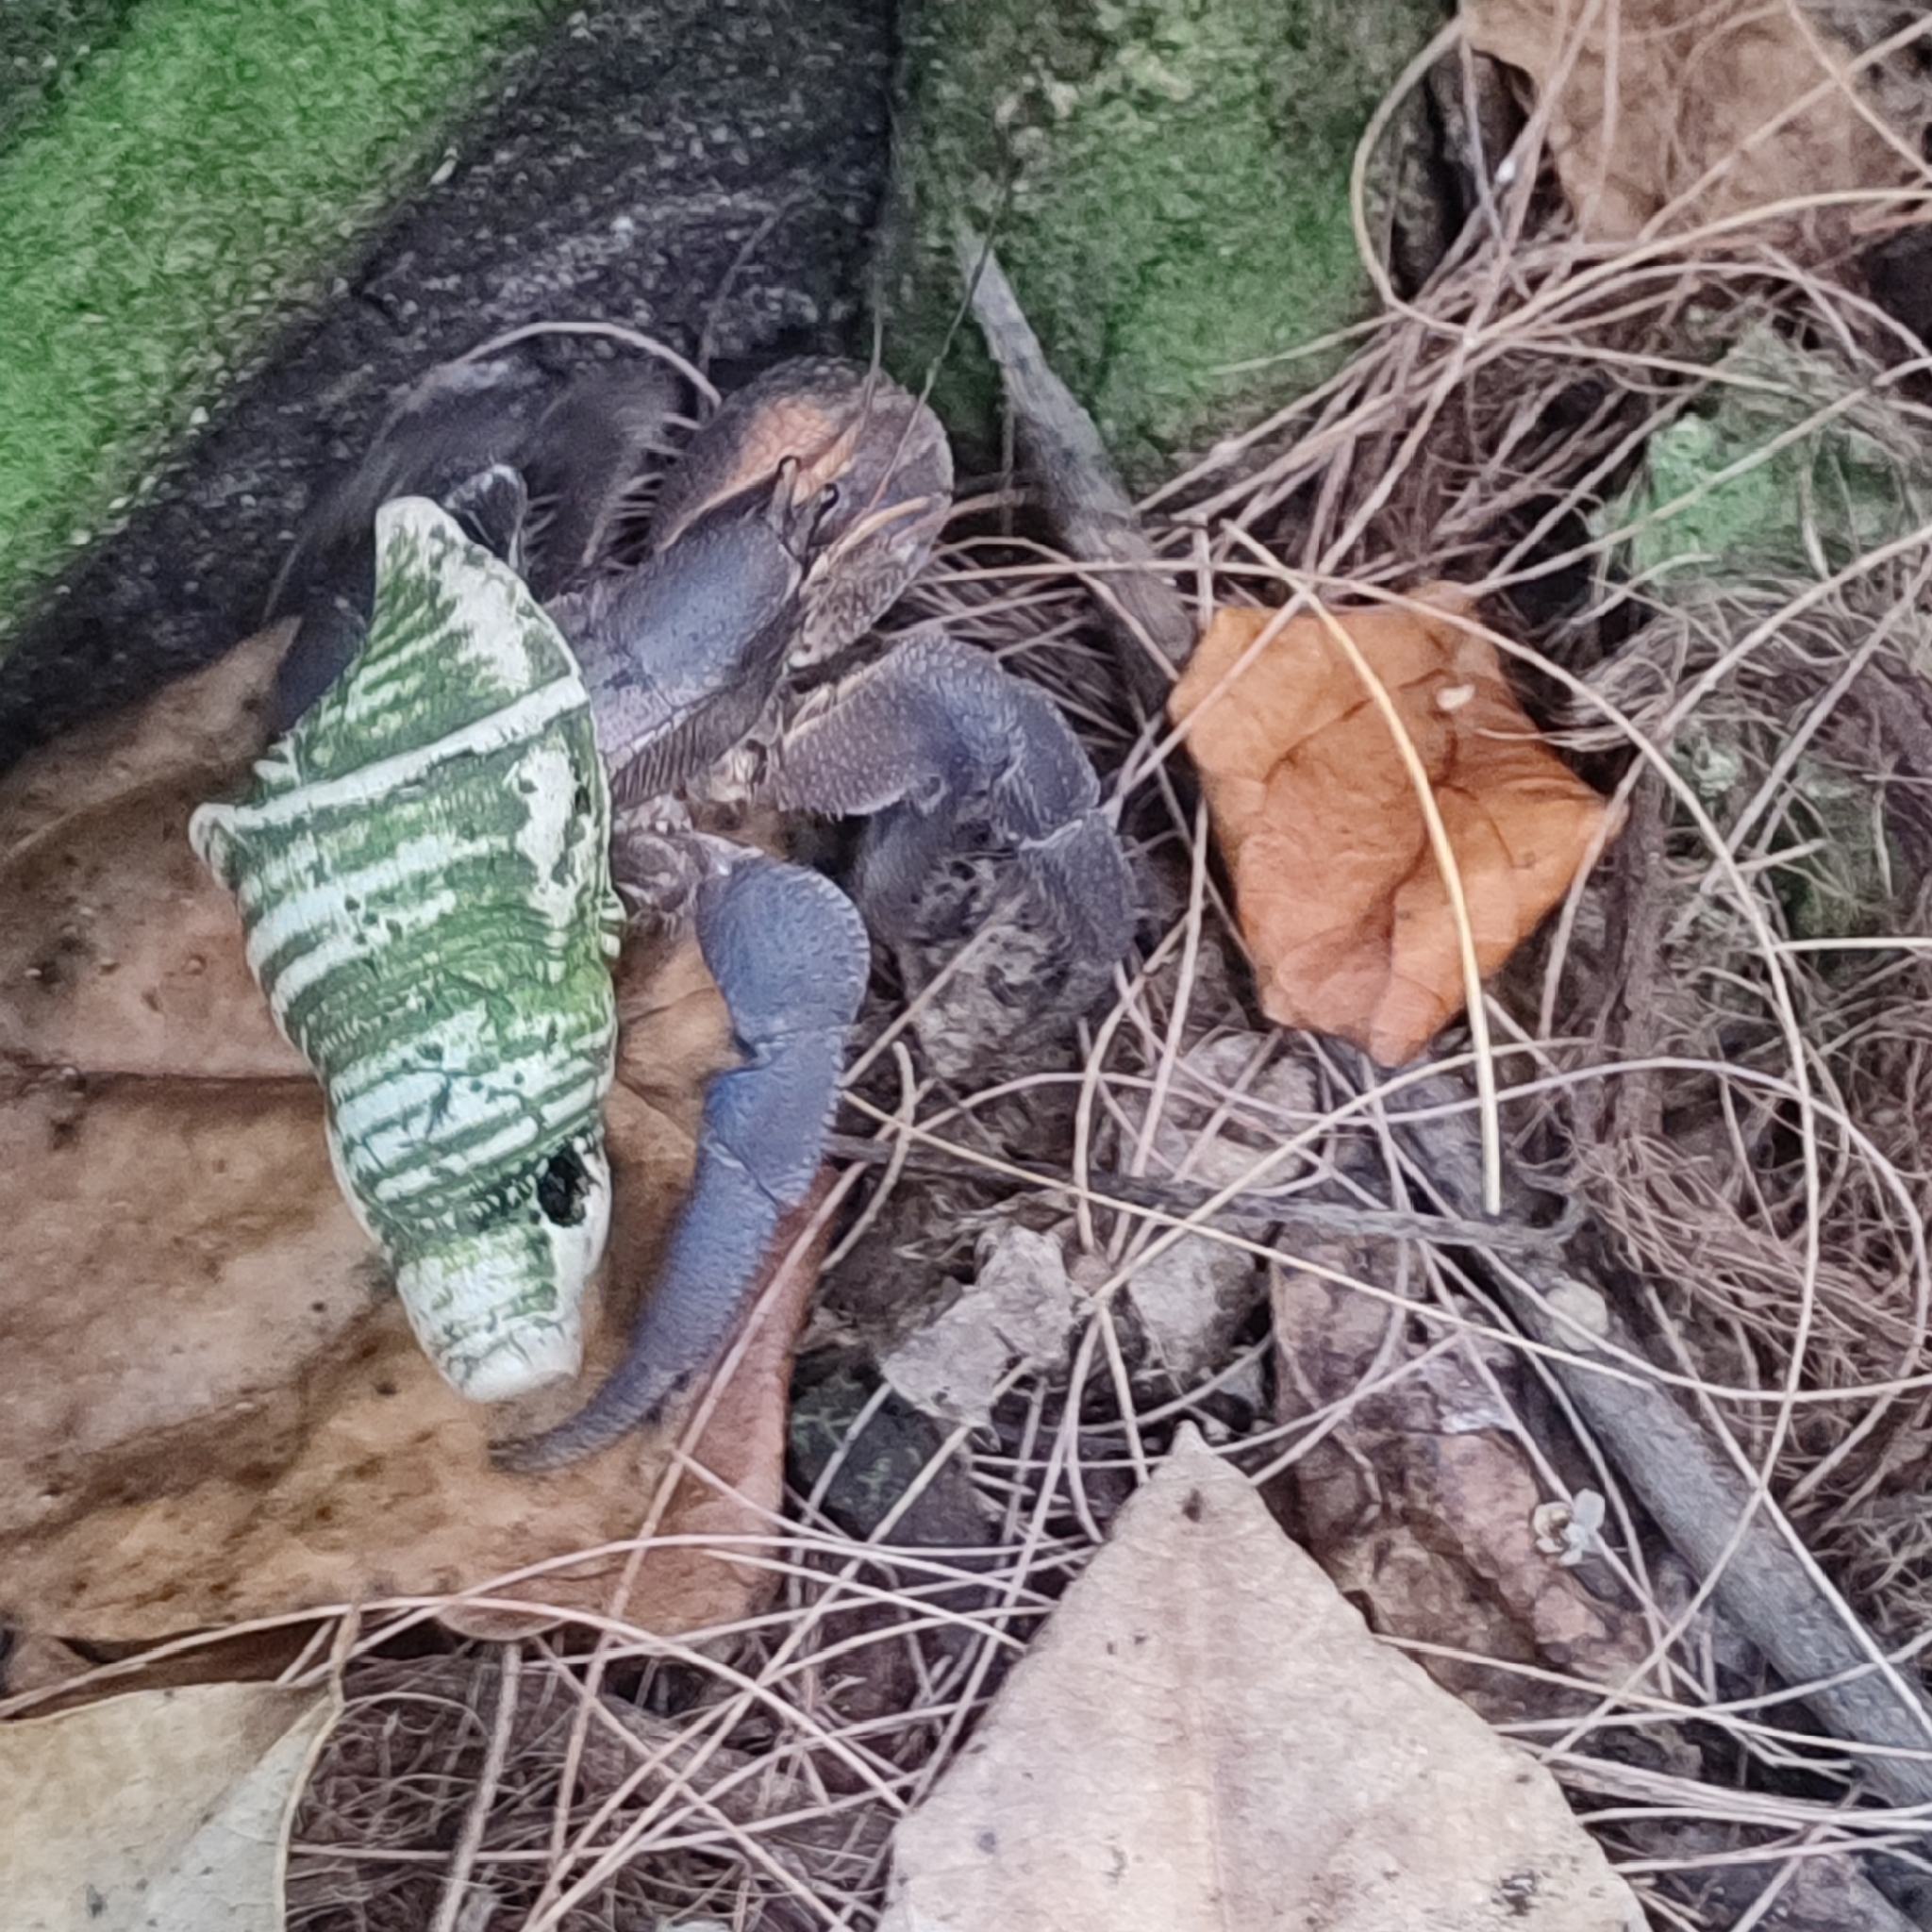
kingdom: Animalia
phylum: Arthropoda
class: Malacostraca
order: Decapoda
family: Coenobitidae
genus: Coenobita
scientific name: Coenobita brevimanus
